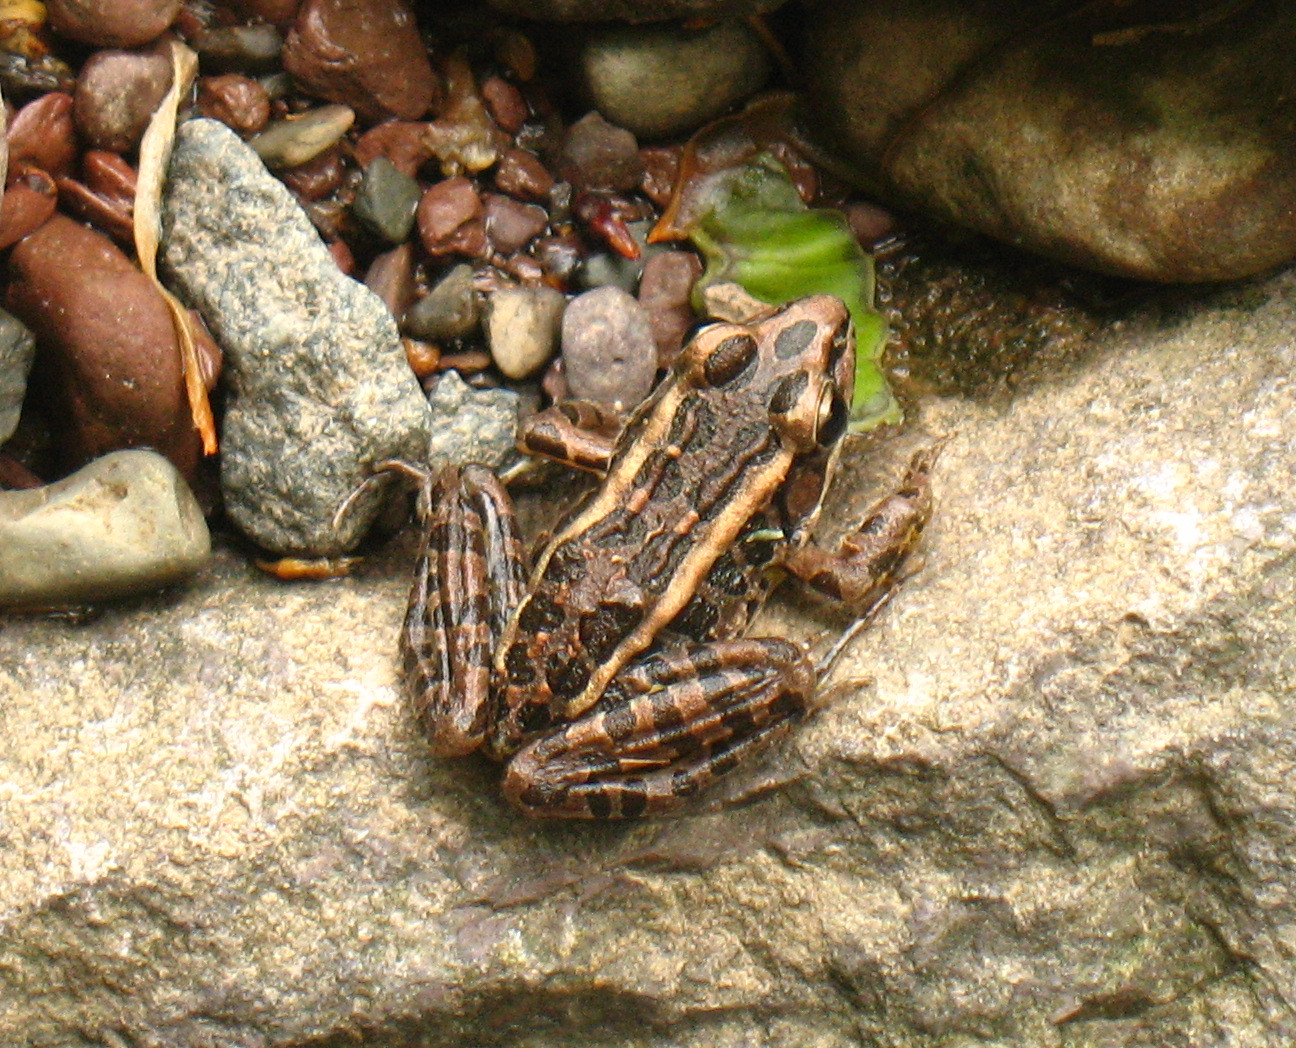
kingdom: Animalia
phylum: Chordata
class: Amphibia
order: Anura
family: Ranidae
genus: Lithobates
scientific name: Lithobates palustris
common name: Pickerel frog
